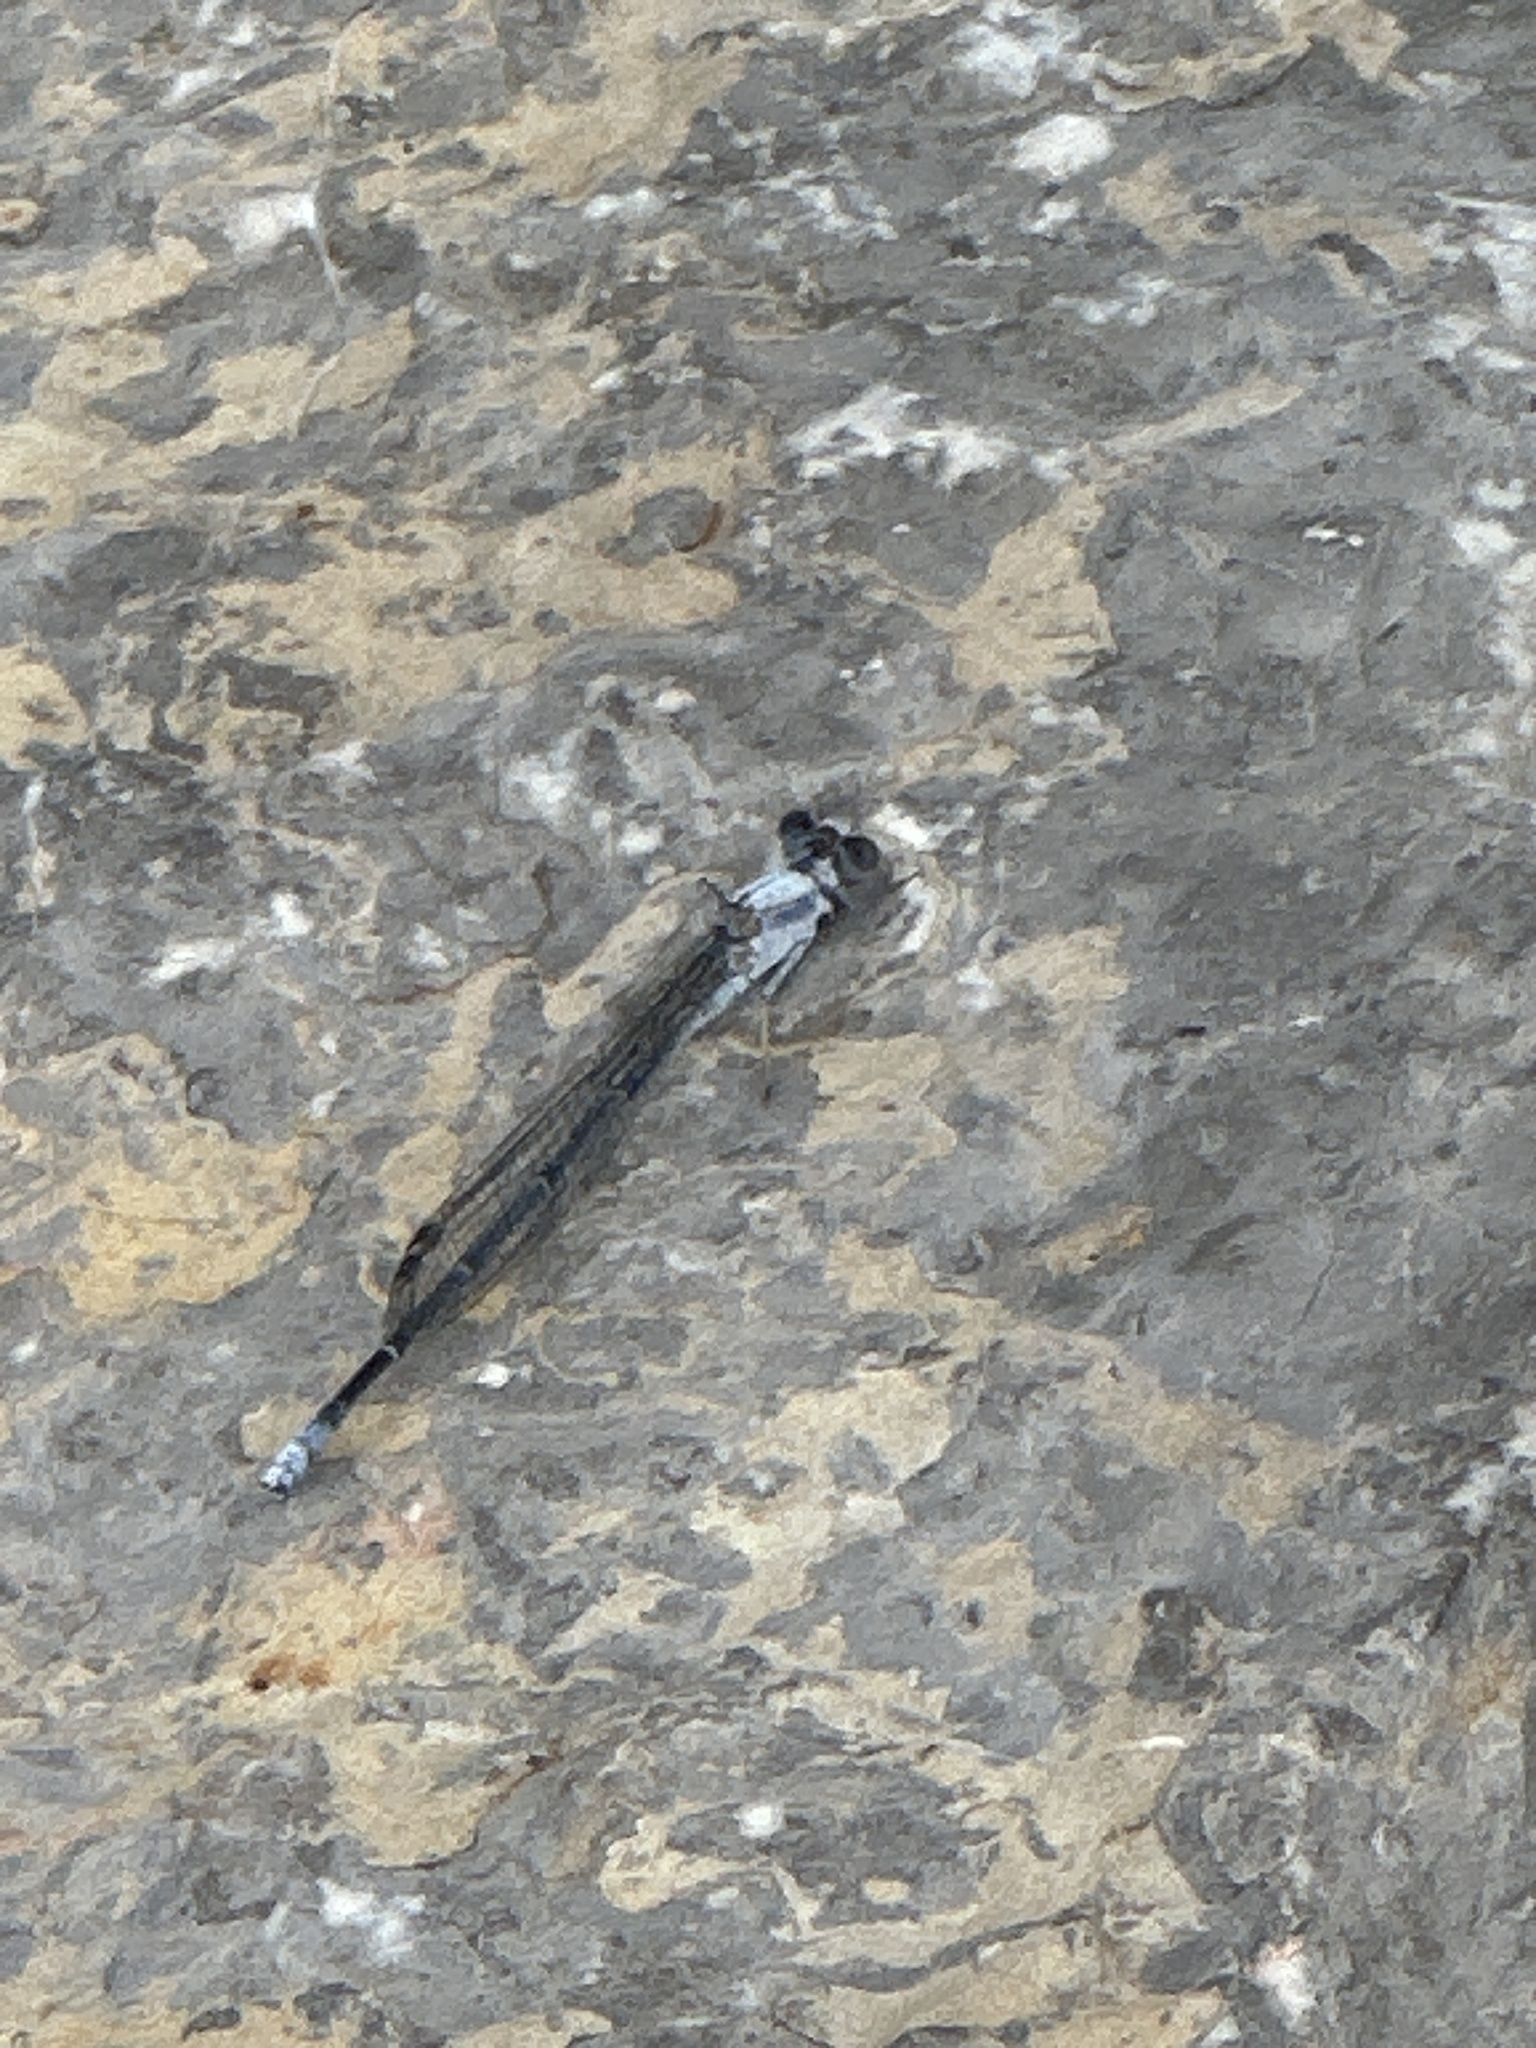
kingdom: Animalia
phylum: Arthropoda
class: Insecta
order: Odonata
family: Coenagrionidae
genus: Argia
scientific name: Argia moesta
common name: Powdered dancer
